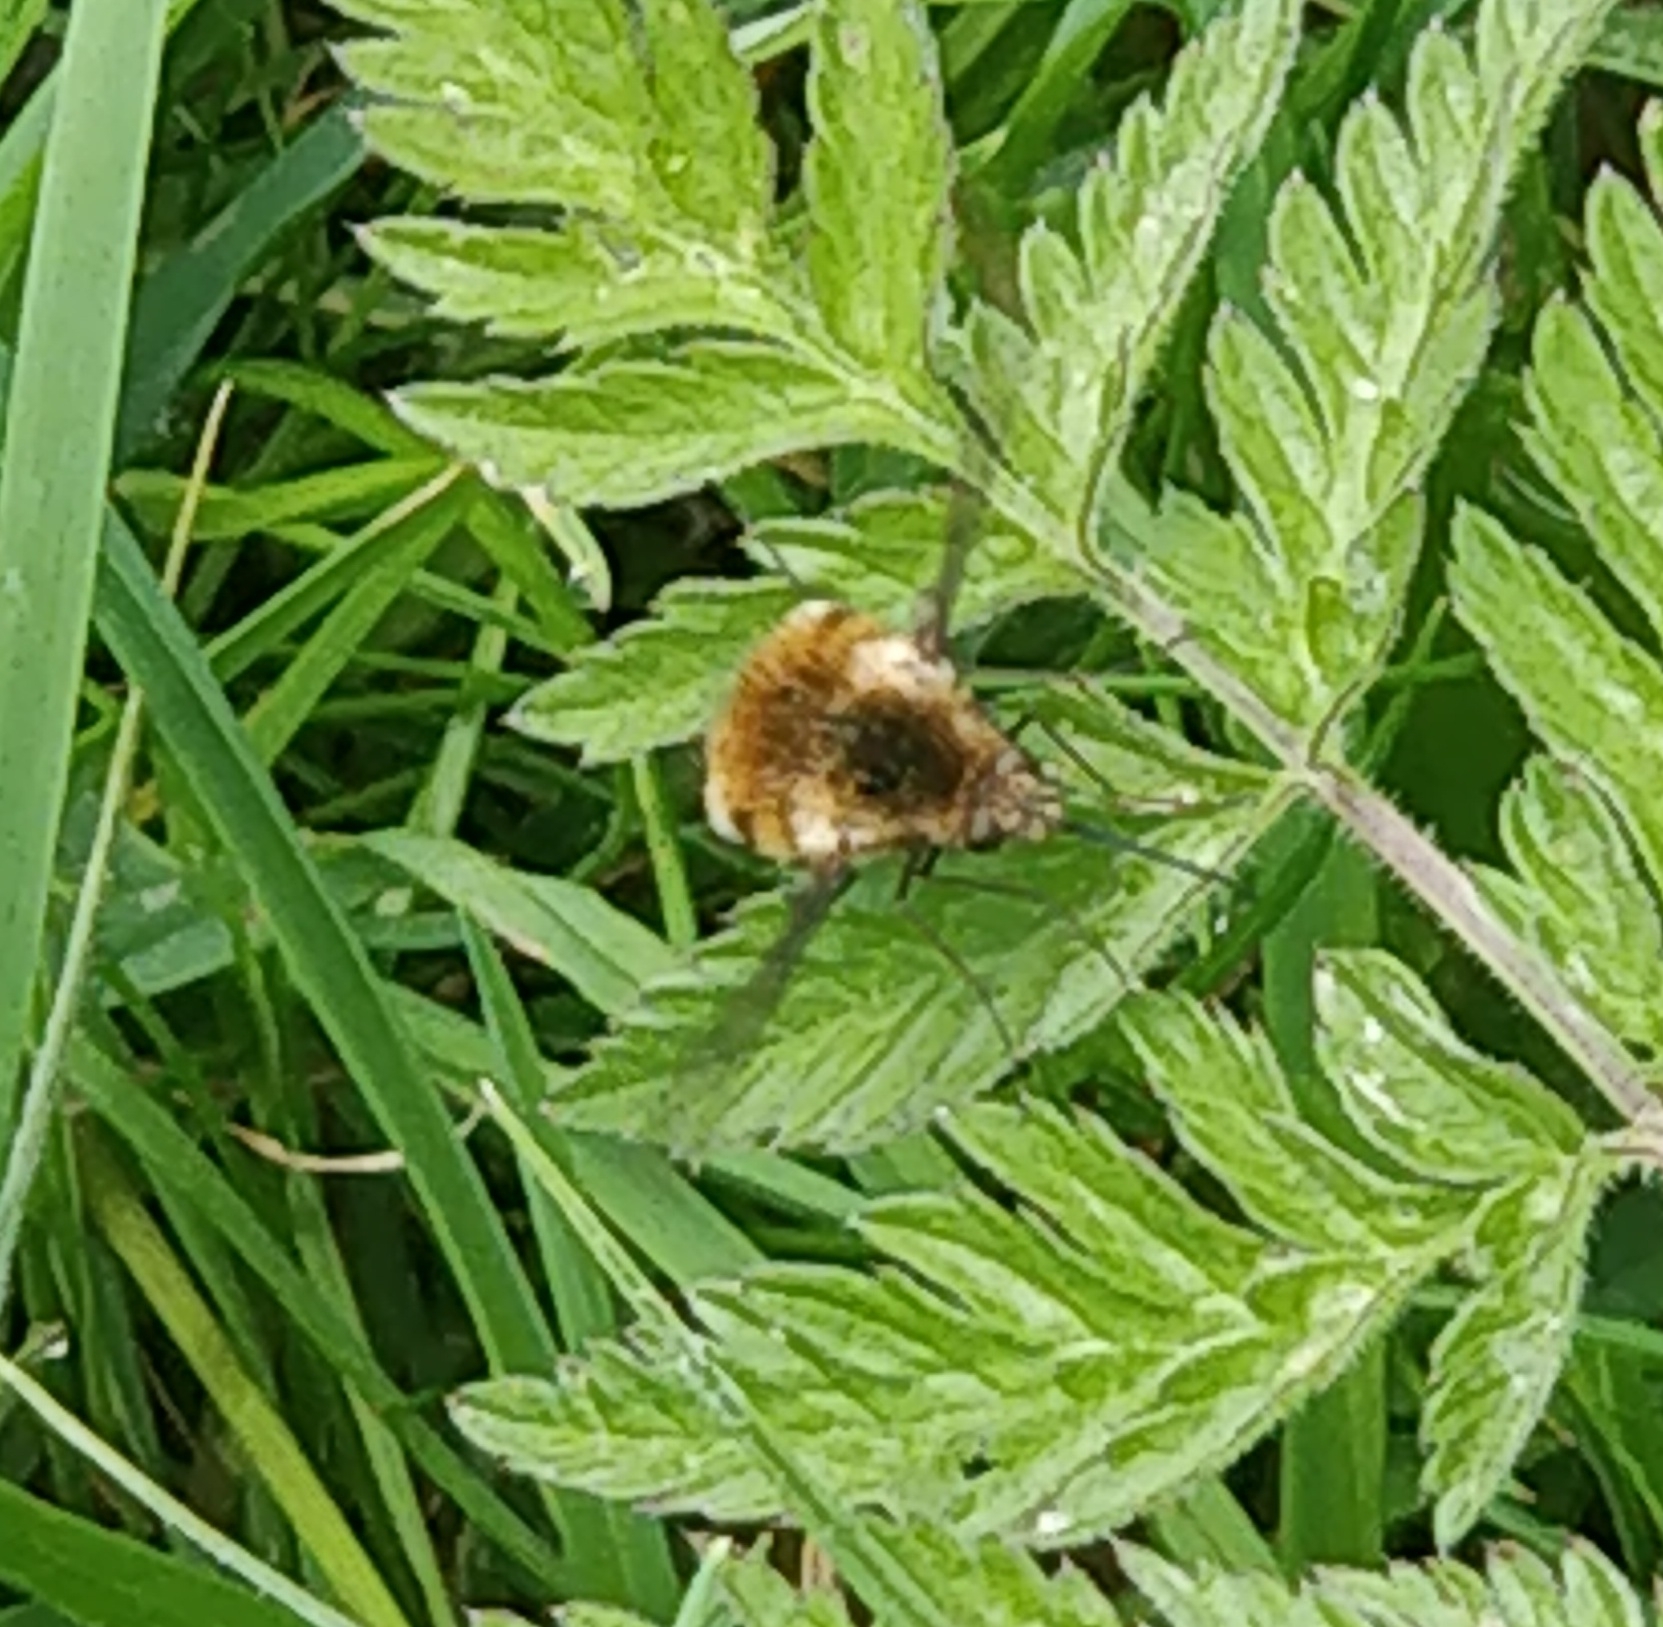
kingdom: Animalia
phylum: Arthropoda
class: Insecta
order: Diptera
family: Bombyliidae
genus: Bombylius
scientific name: Bombylius major
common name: Bee fly
